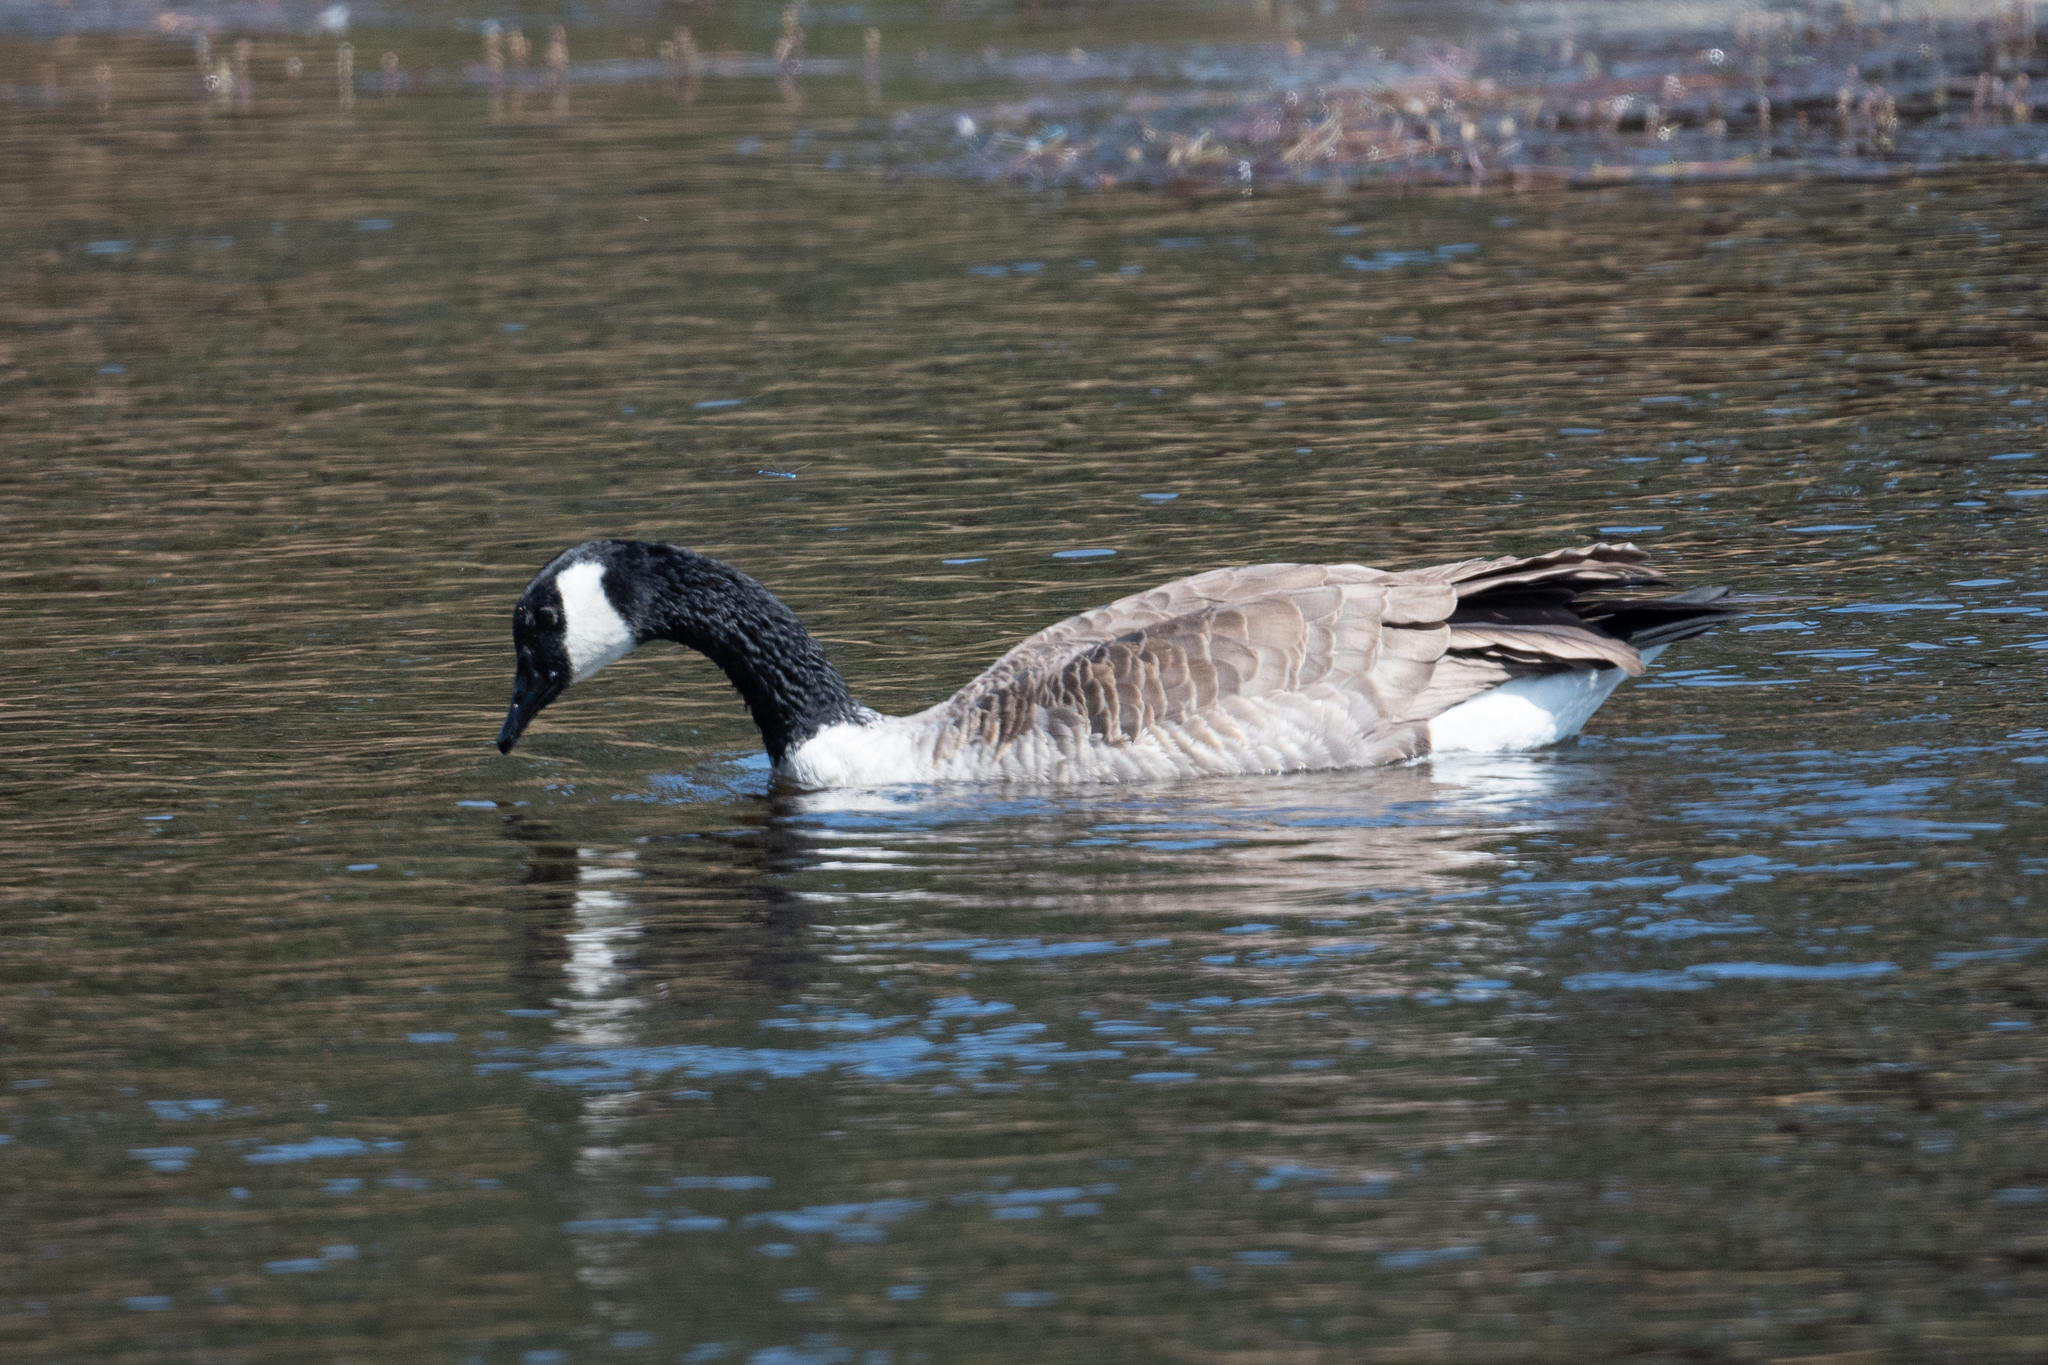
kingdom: Animalia
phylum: Chordata
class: Aves
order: Anseriformes
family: Anatidae
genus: Branta
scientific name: Branta canadensis
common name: Canada goose
